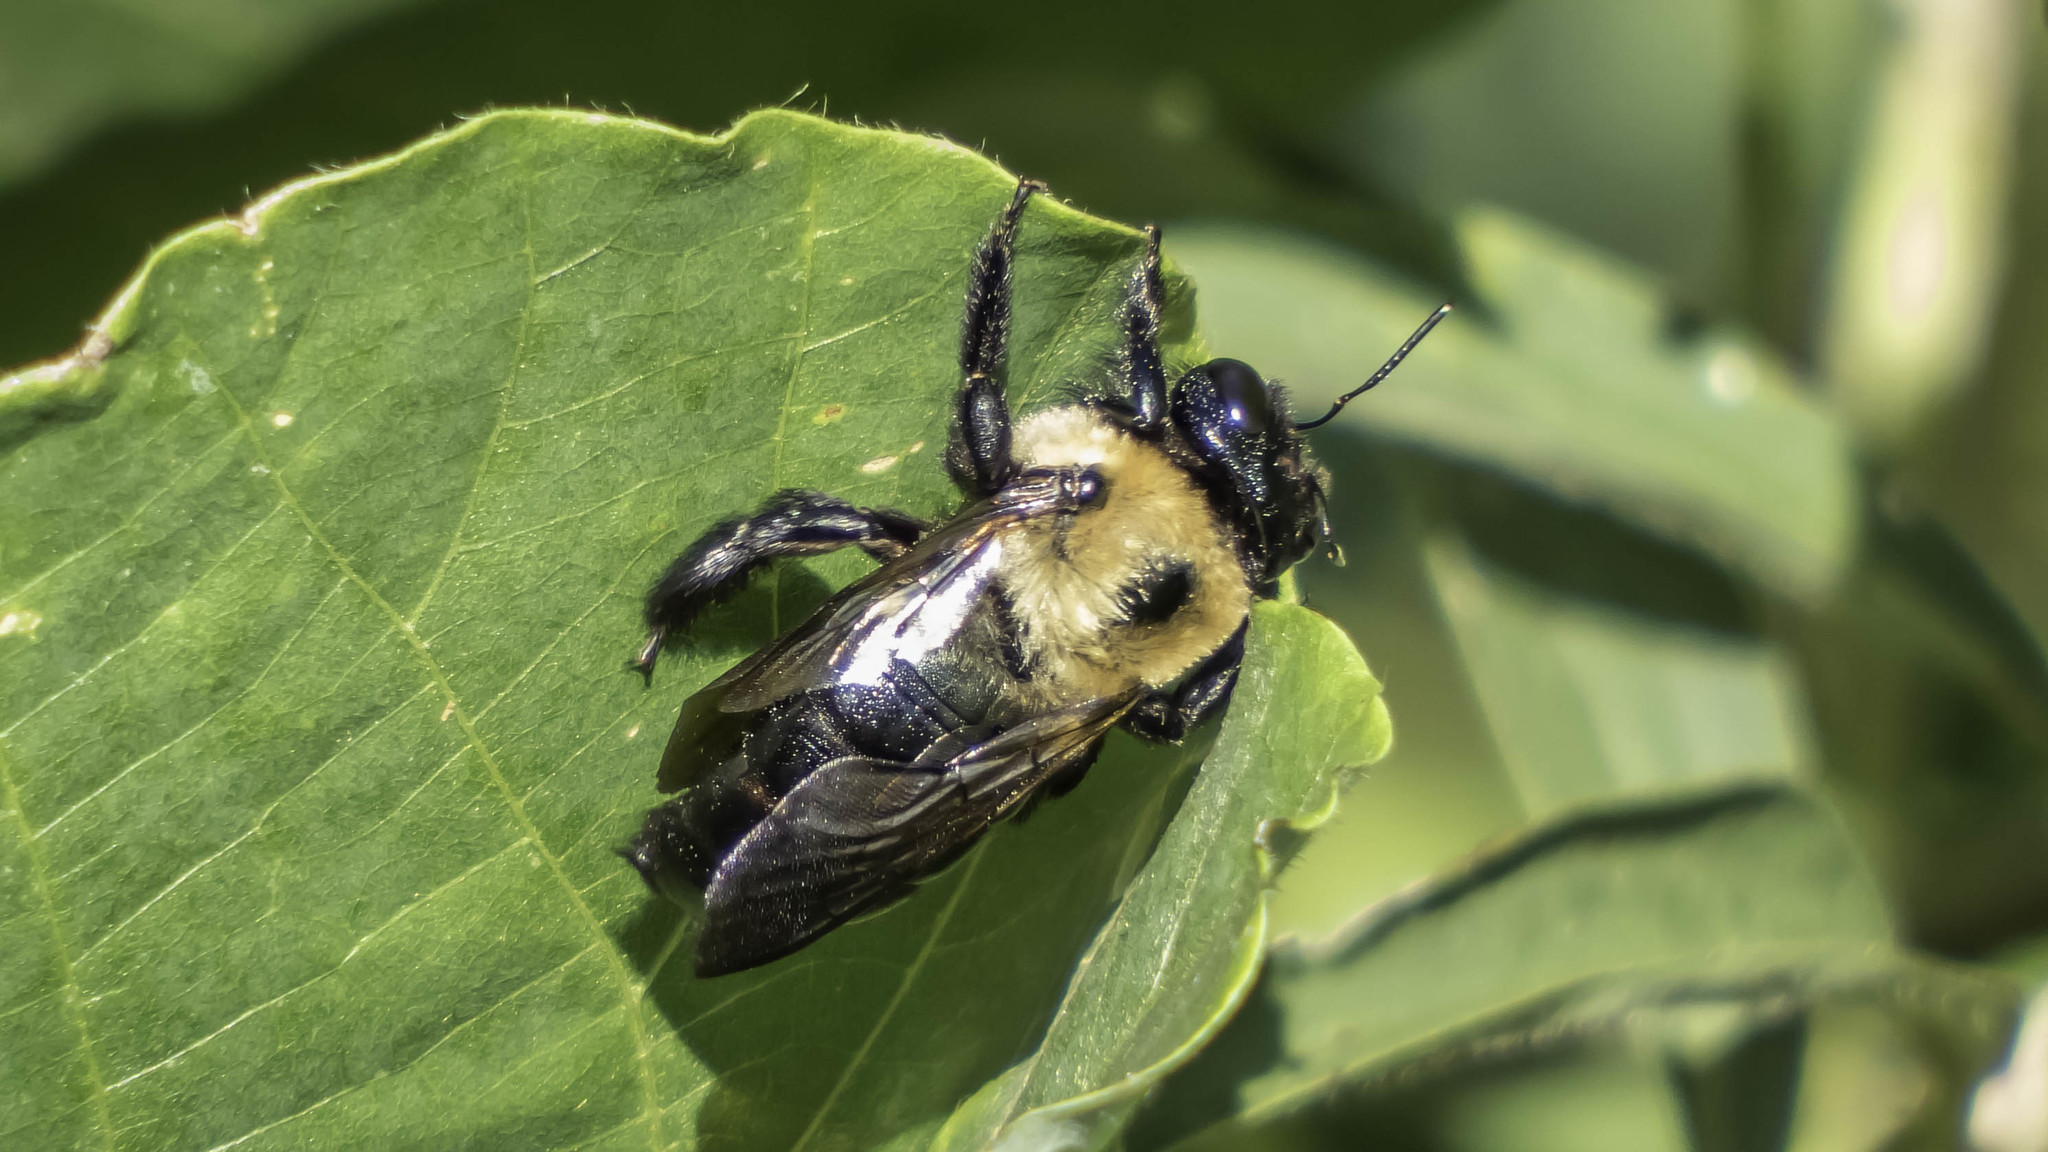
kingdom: Animalia
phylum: Arthropoda
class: Insecta
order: Hymenoptera
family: Apidae
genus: Xylocopa
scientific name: Xylocopa virginica
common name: Carpenter bee
